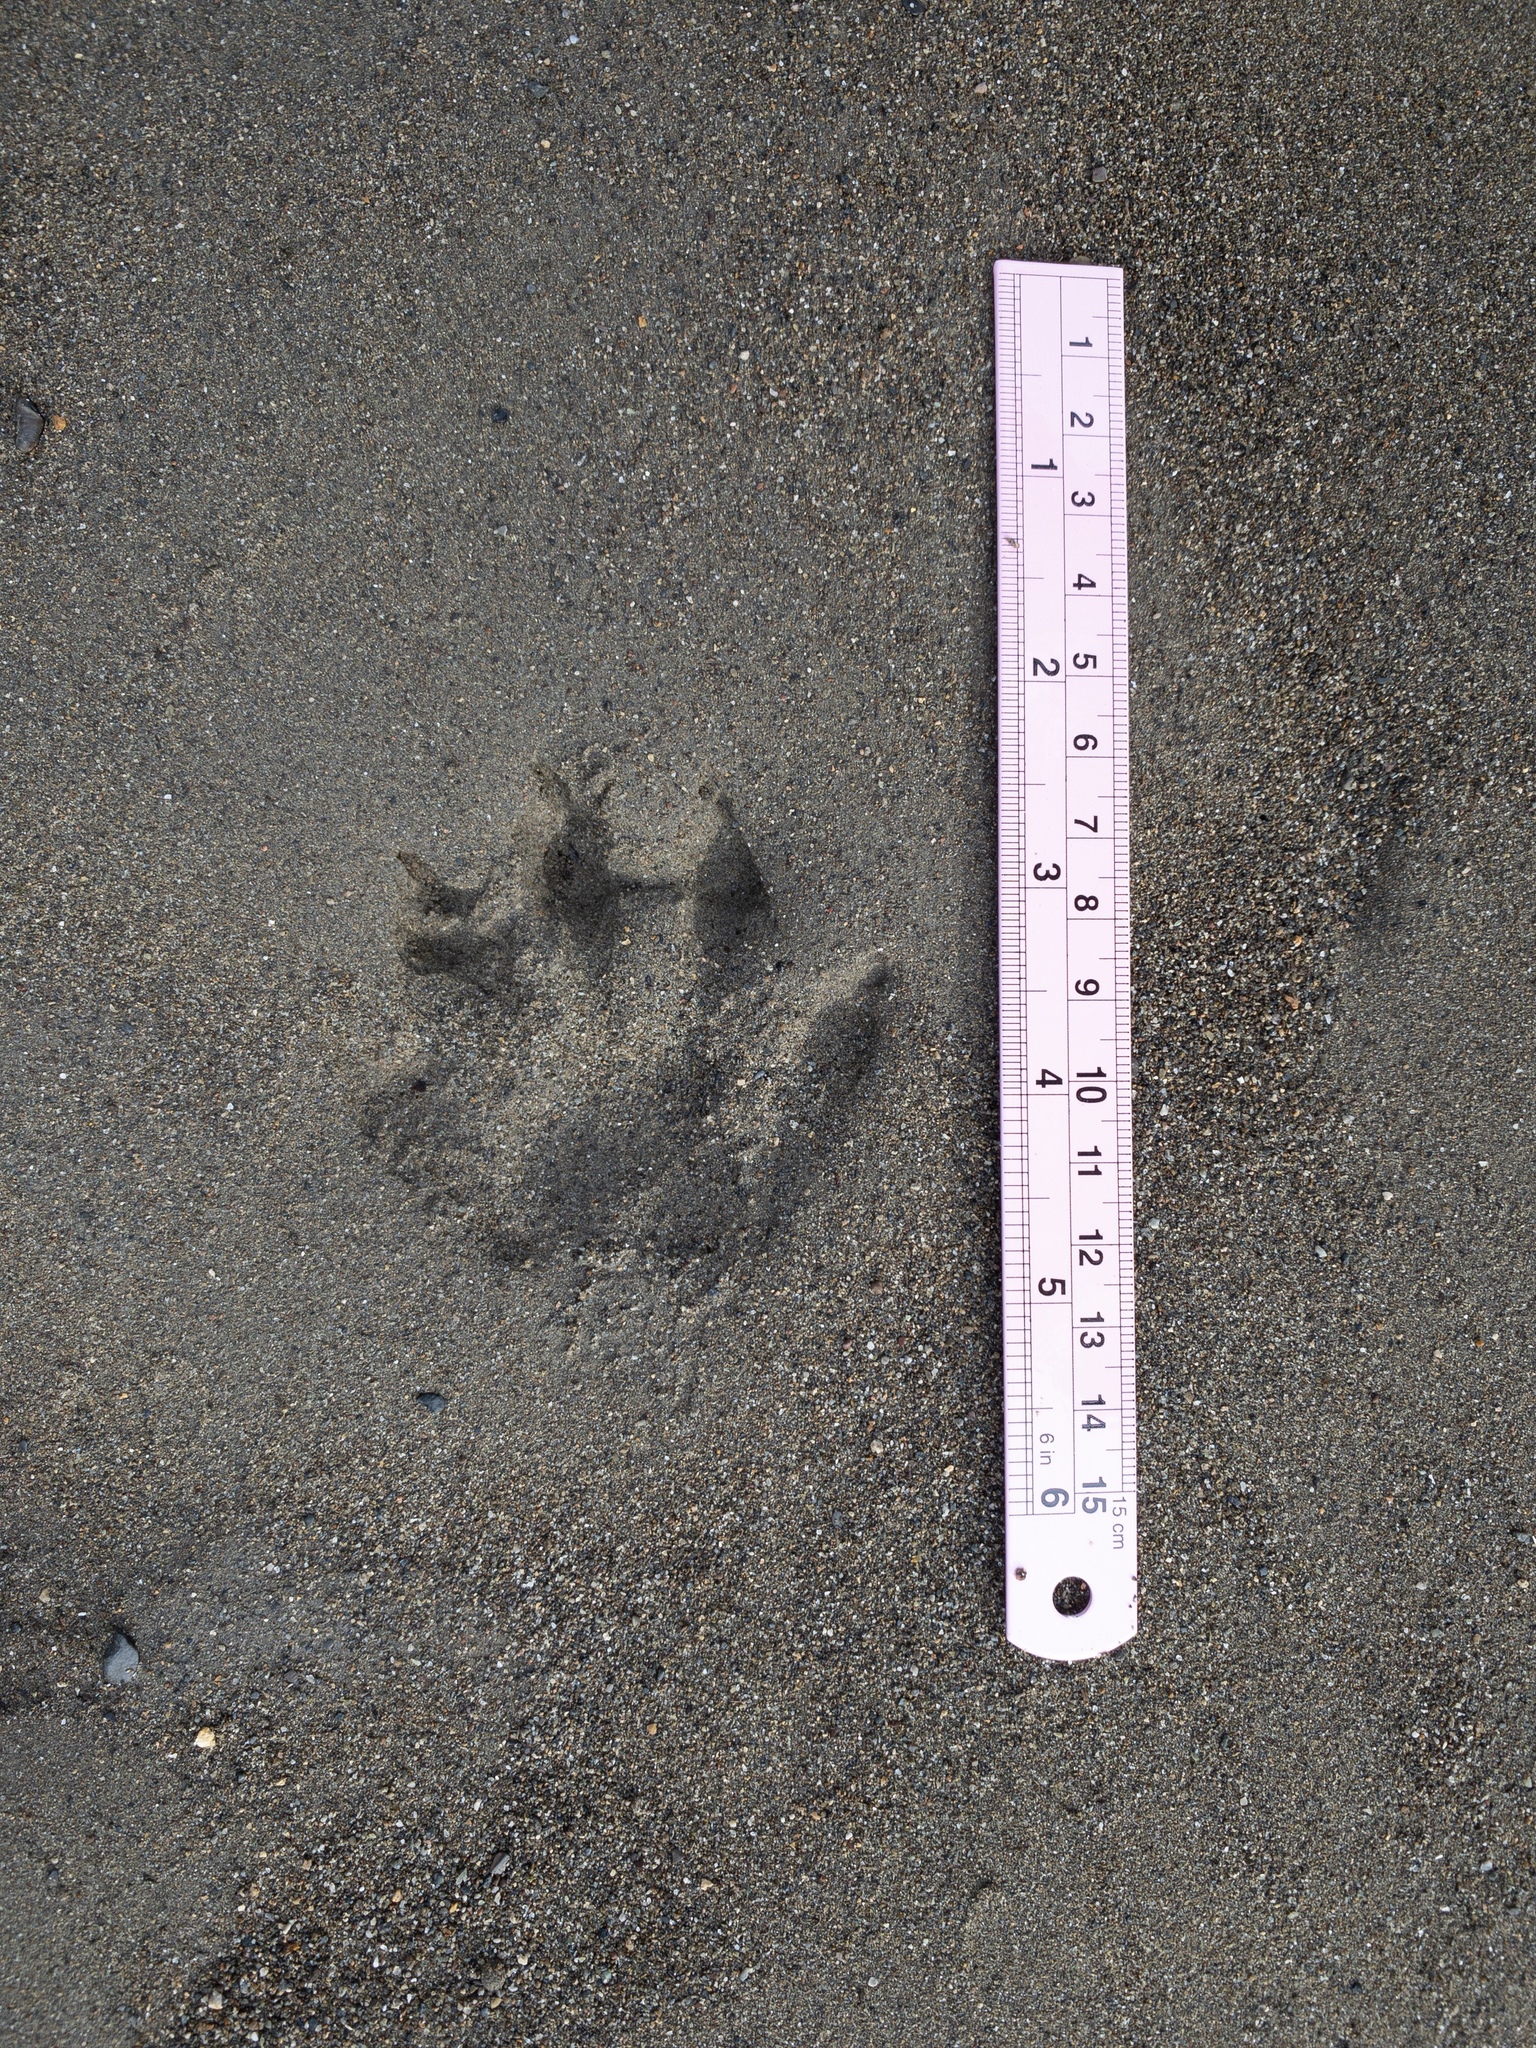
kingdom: Animalia
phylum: Chordata
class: Mammalia
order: Carnivora
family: Mustelidae
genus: Lontra
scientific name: Lontra canadensis
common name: North american river otter
